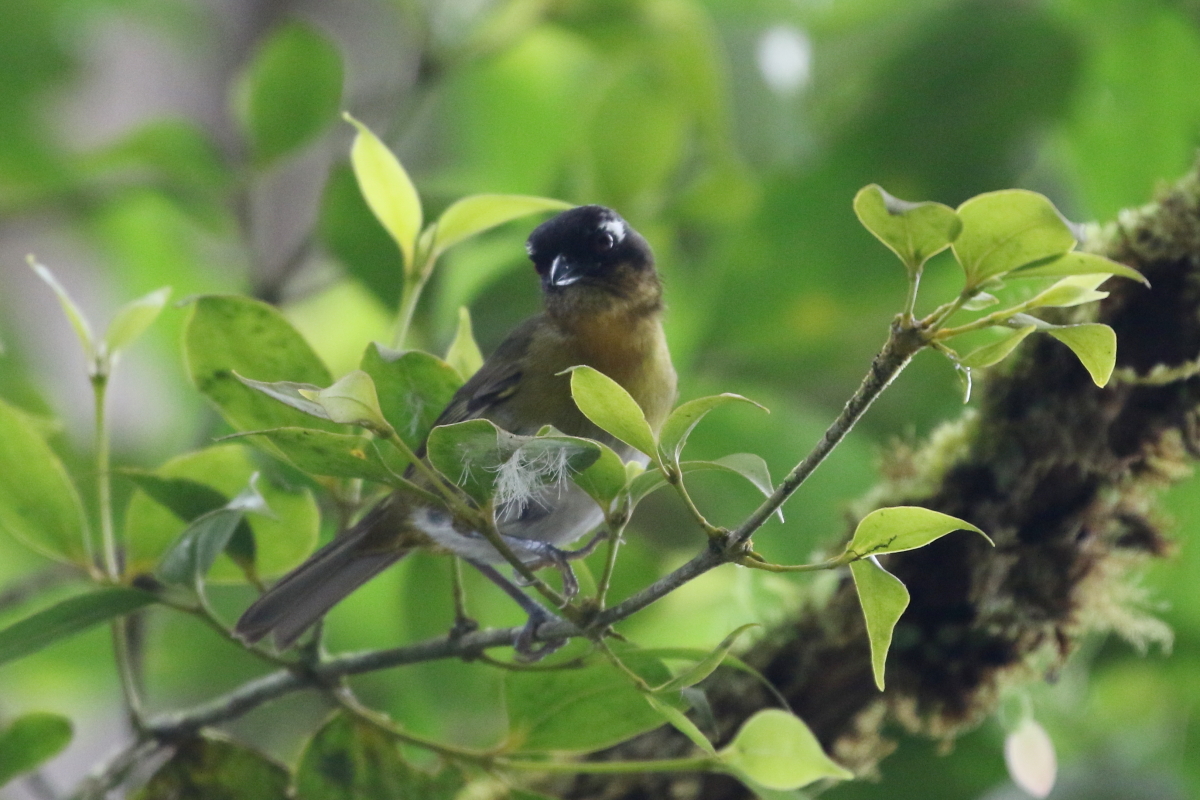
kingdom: Animalia
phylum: Chordata
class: Aves
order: Passeriformes
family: Passerellidae
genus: Chlorospingus
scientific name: Chlorospingus flavopectus
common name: Common chlorospingus
